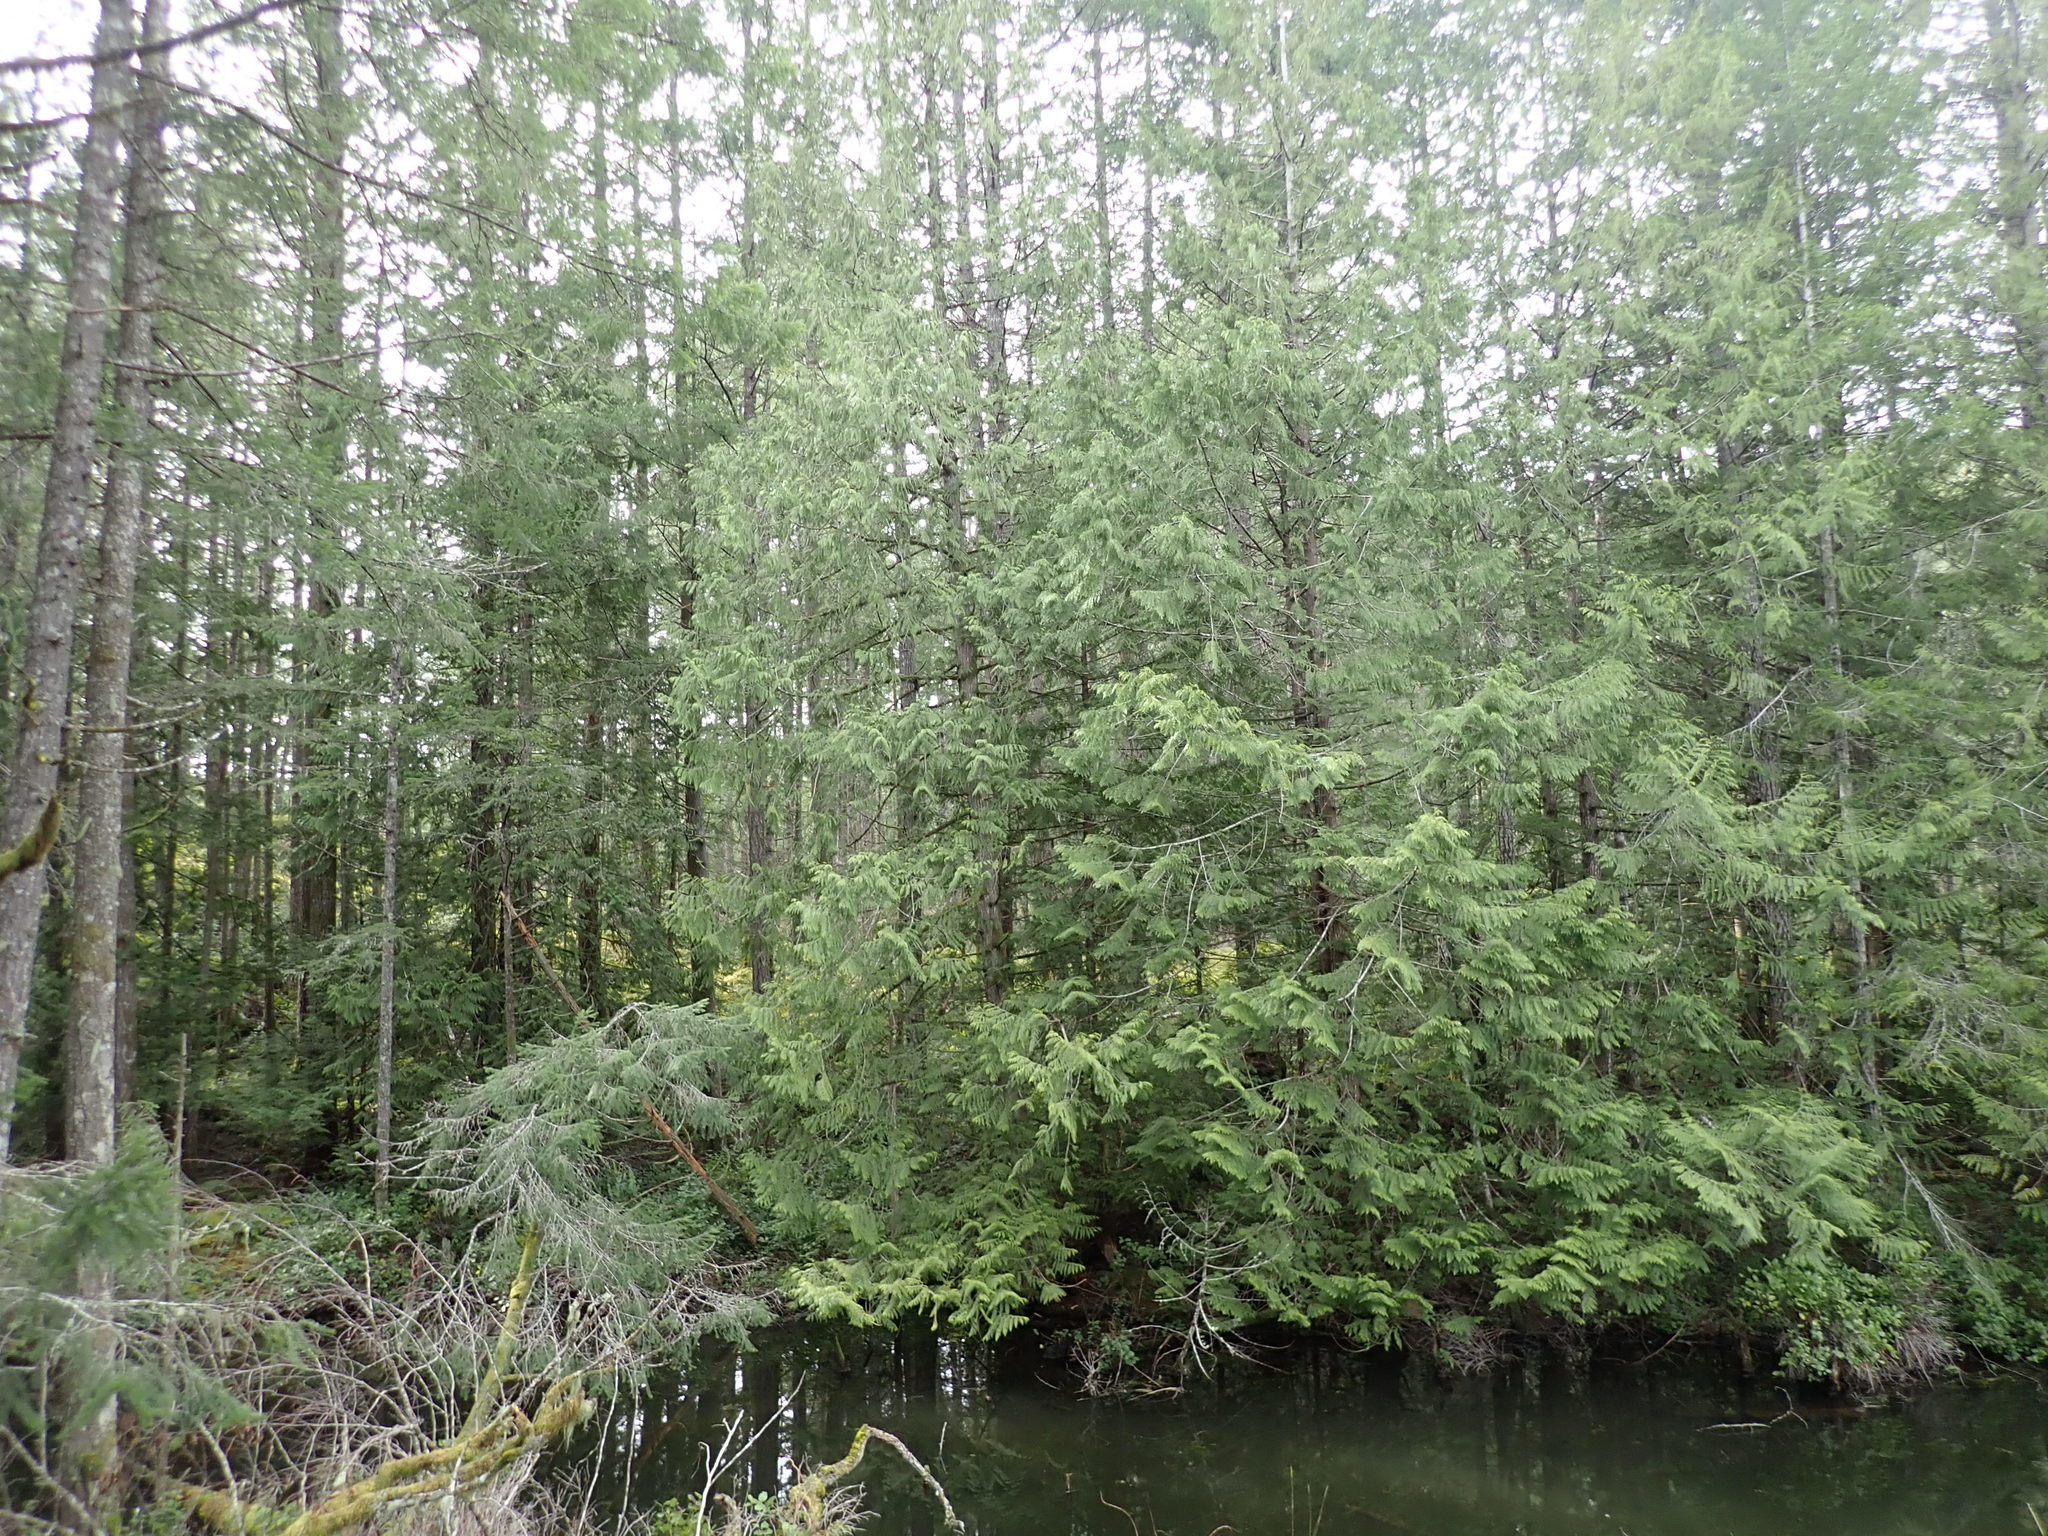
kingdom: Plantae
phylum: Tracheophyta
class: Pinopsida
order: Pinales
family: Cupressaceae
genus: Thuja
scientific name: Thuja plicata
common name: Western red-cedar
